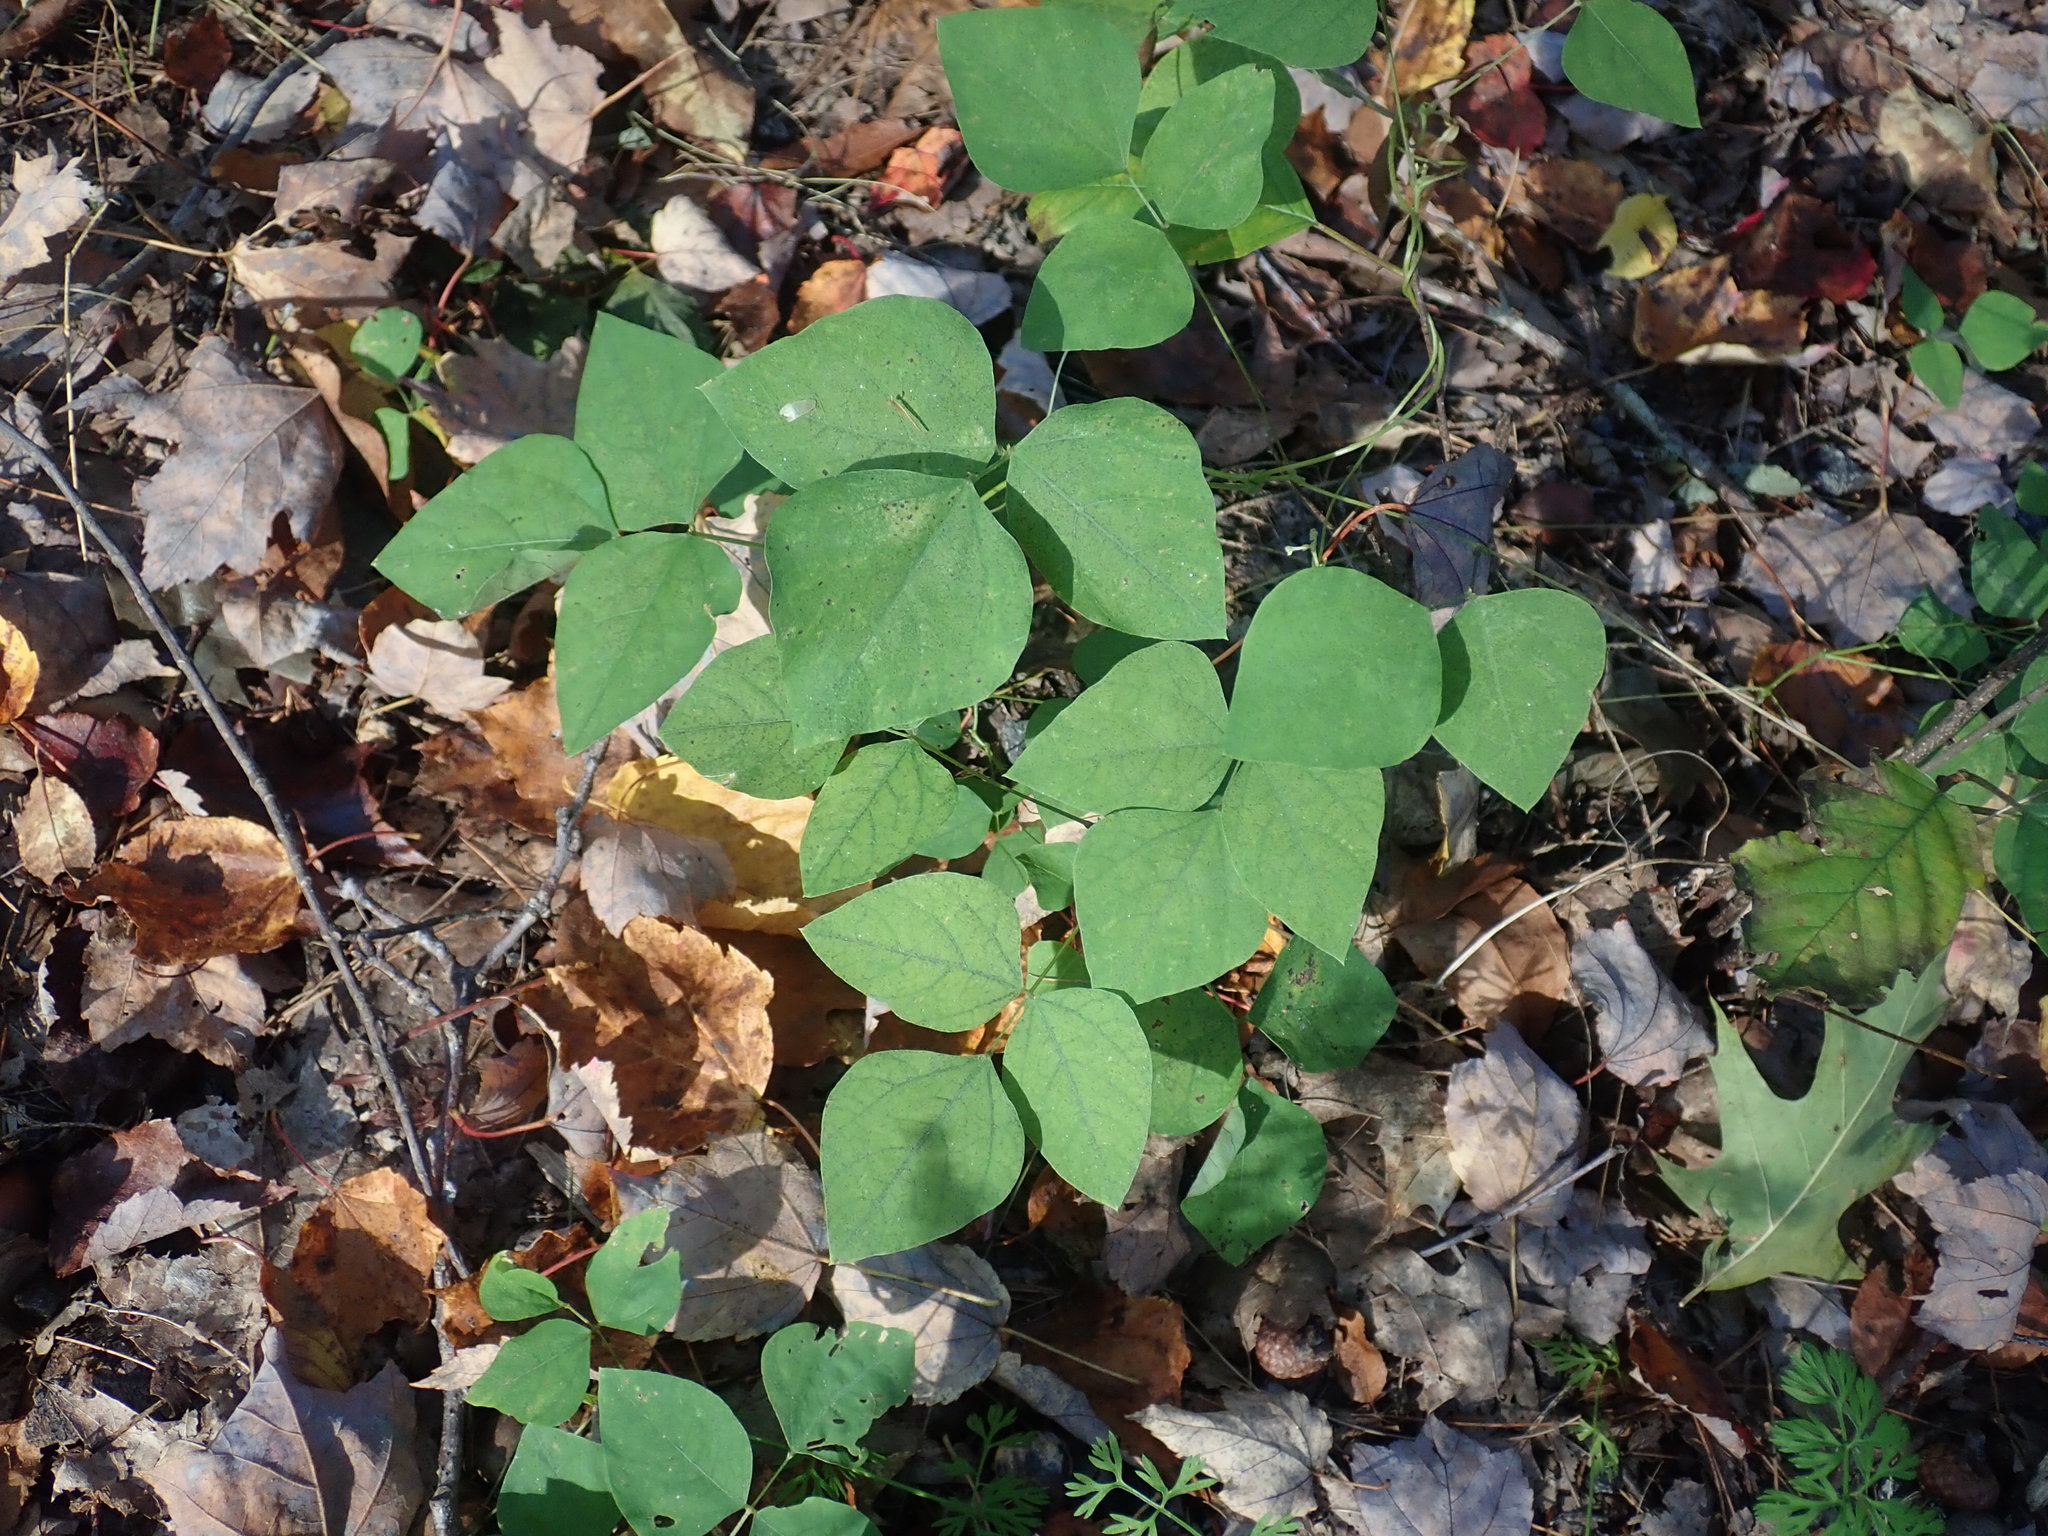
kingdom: Plantae
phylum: Tracheophyta
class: Magnoliopsida
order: Fabales
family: Fabaceae
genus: Amphicarpaea
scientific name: Amphicarpaea bracteata
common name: American hog peanut
